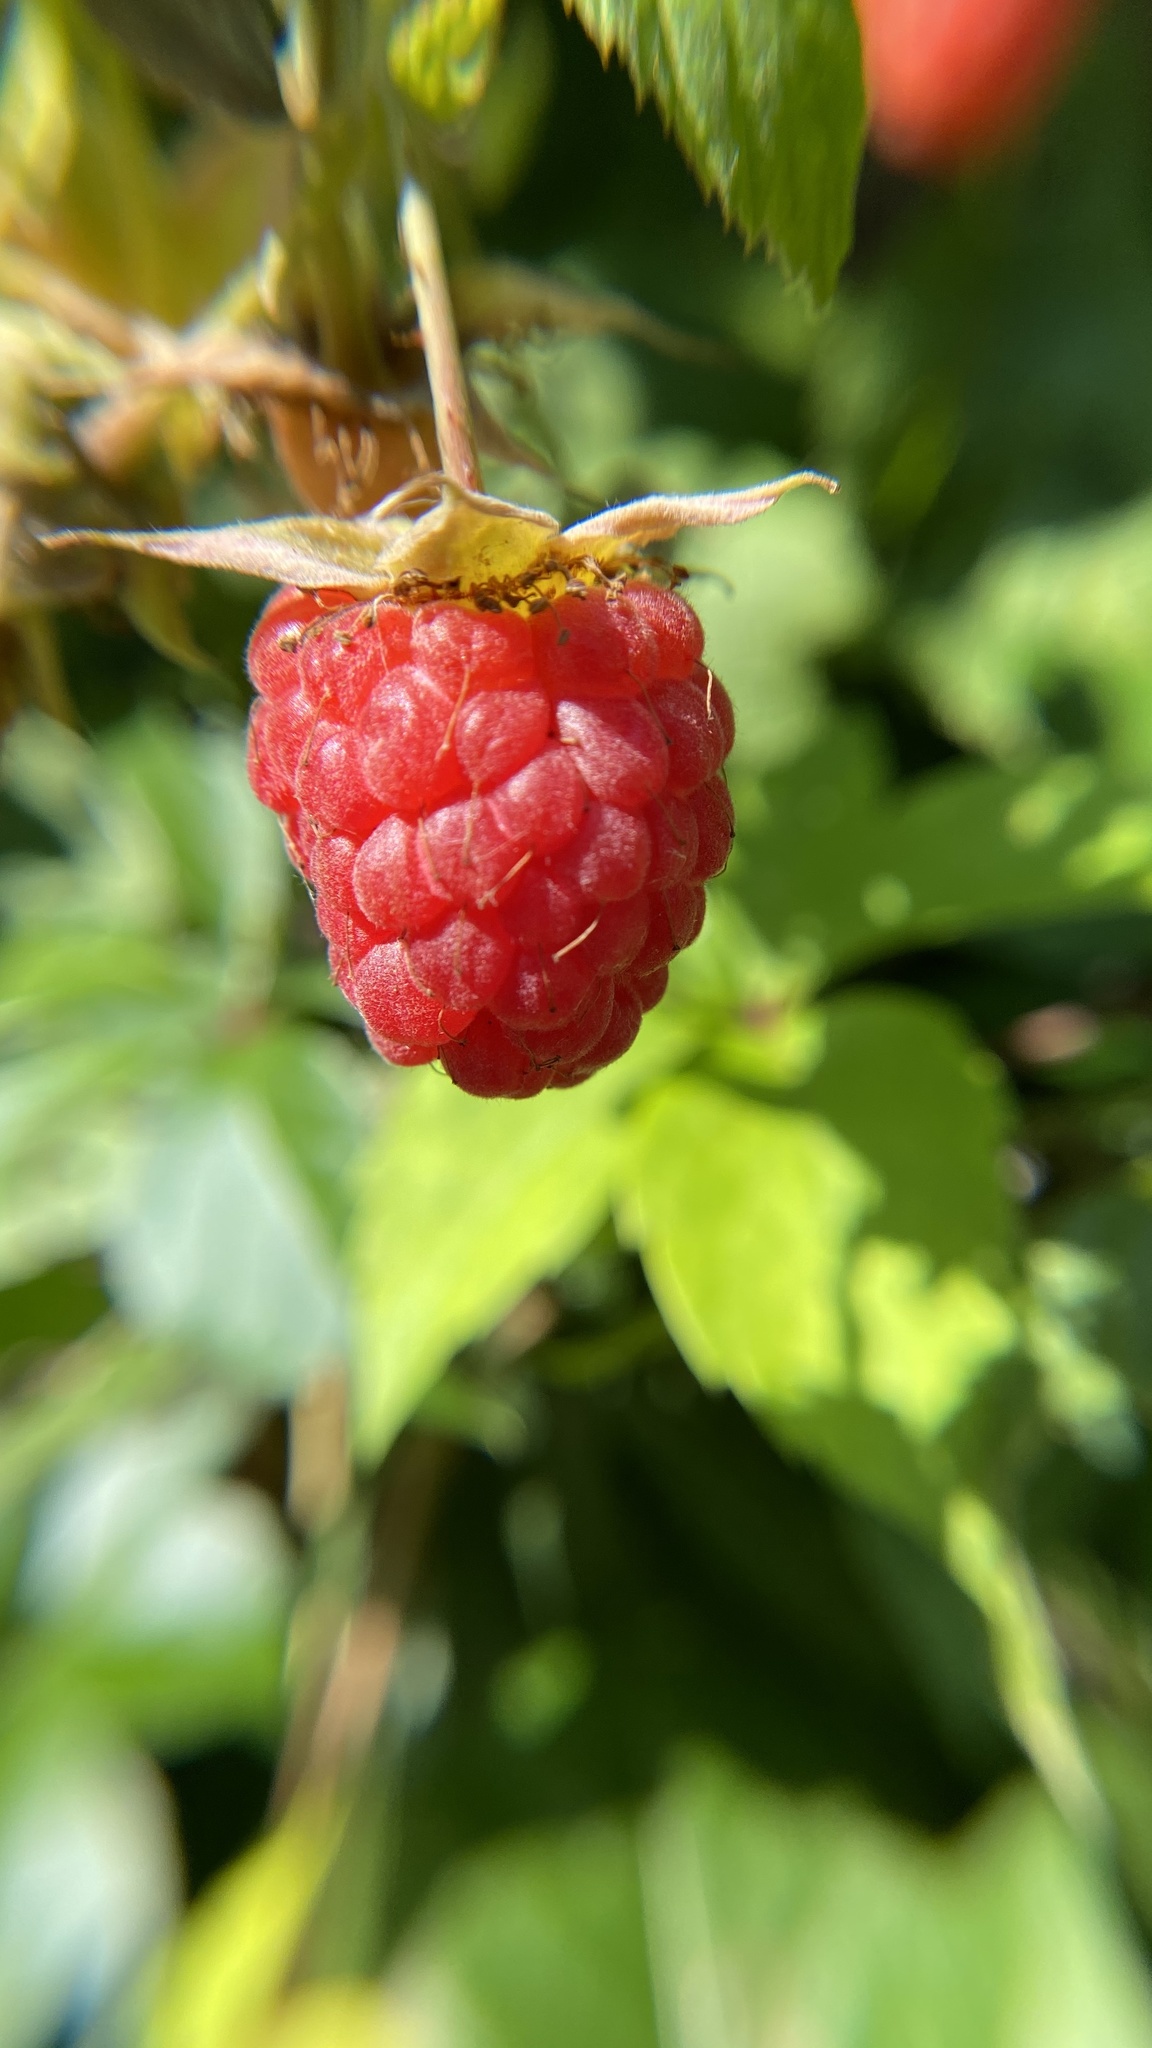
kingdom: Plantae
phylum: Tracheophyta
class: Magnoliopsida
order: Rosales
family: Rosaceae
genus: Rubus
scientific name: Rubus idaeus
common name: Raspberry
